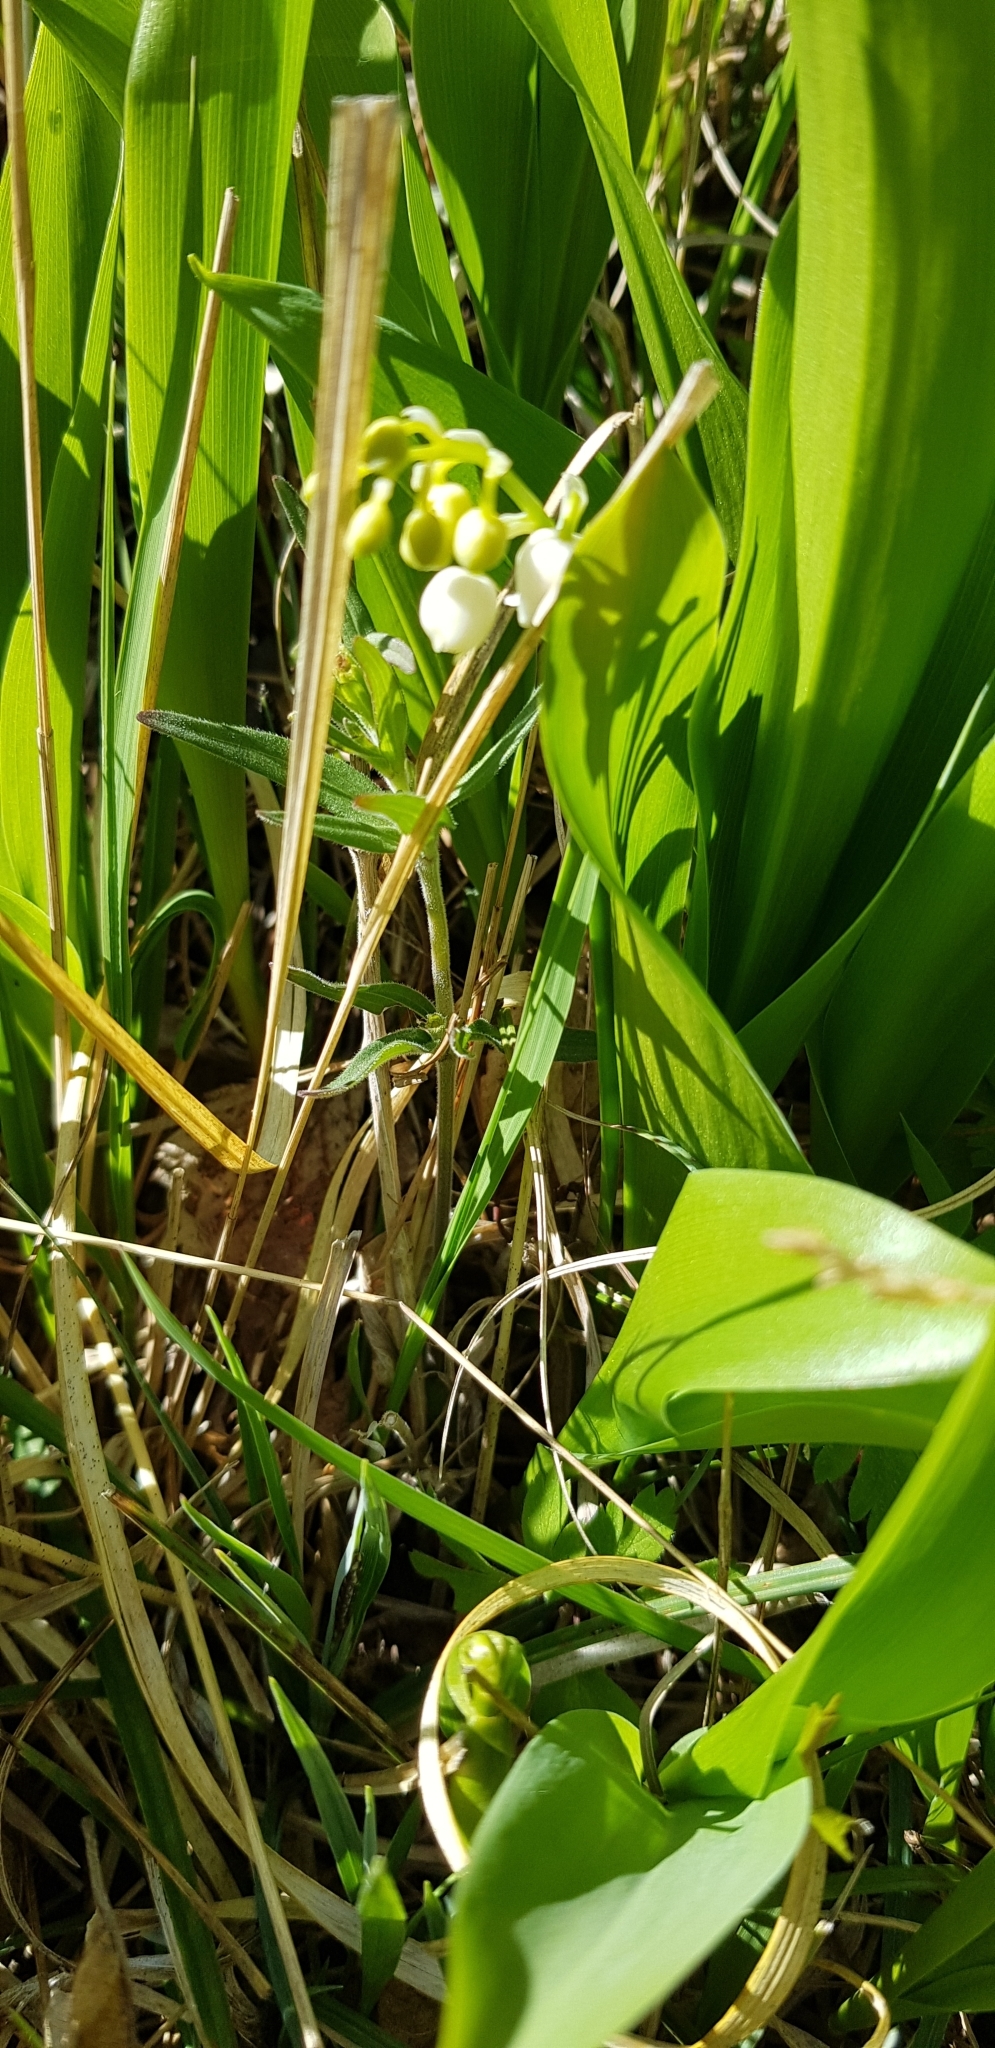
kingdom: Plantae
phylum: Tracheophyta
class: Liliopsida
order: Asparagales
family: Asparagaceae
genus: Convallaria
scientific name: Convallaria majalis
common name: Lily-of-the-valley
